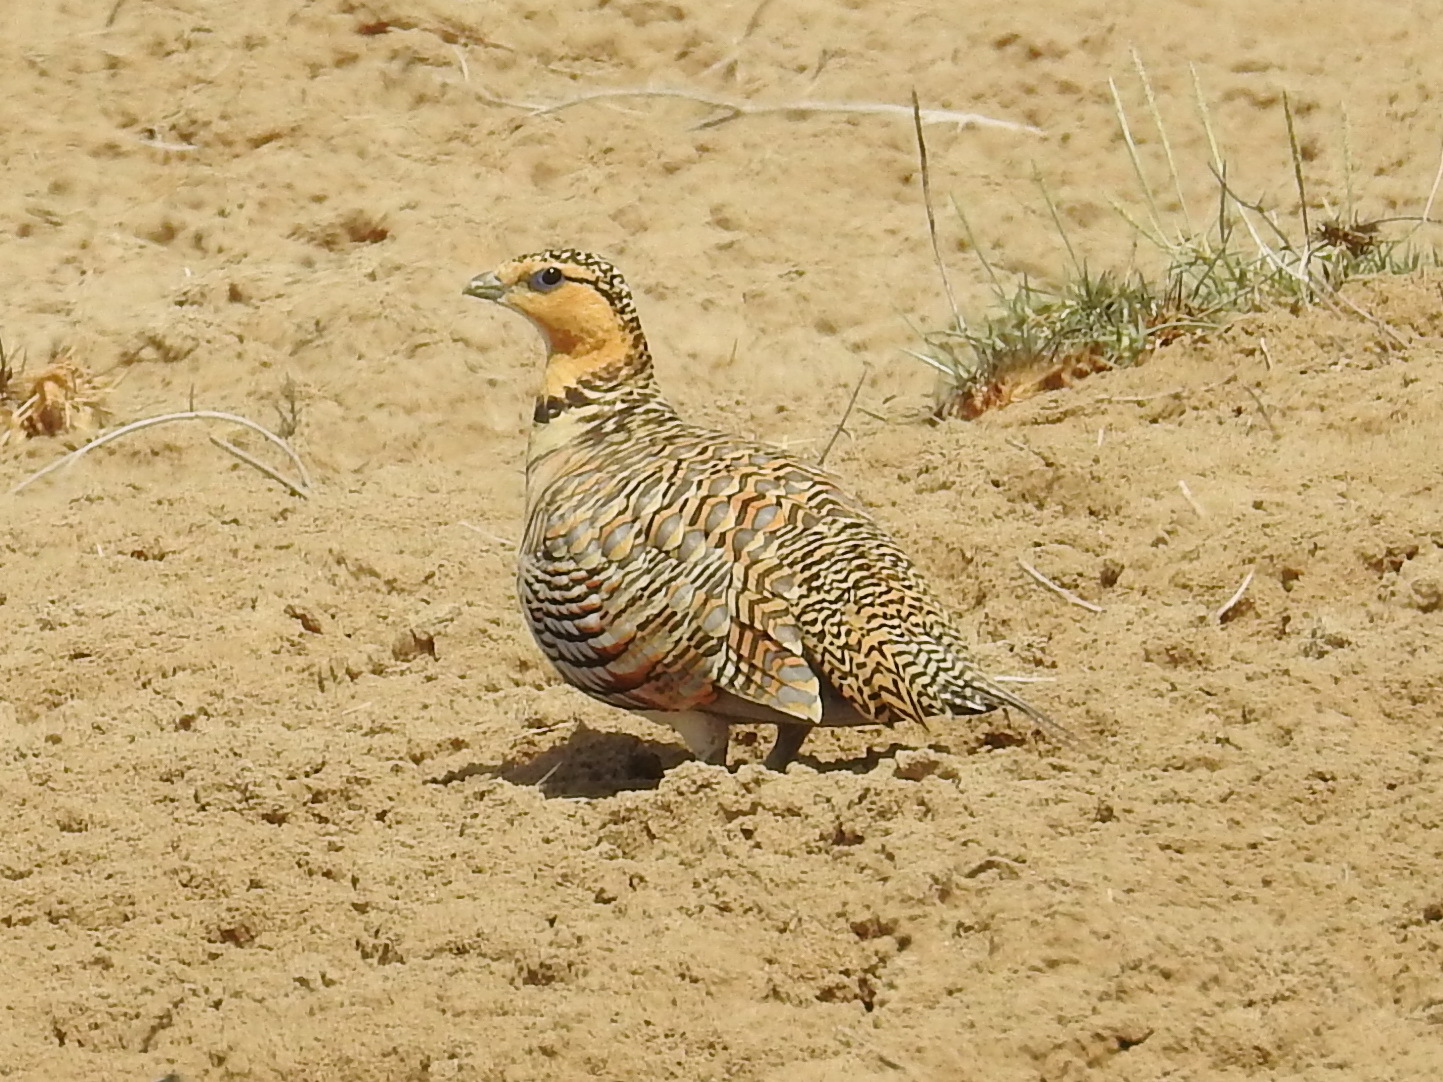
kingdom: Animalia
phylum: Chordata
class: Aves
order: Pteroclidiformes
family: Pteroclididae
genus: Pterocles
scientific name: Pterocles alchata
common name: Pin-tailed sandgrouse
